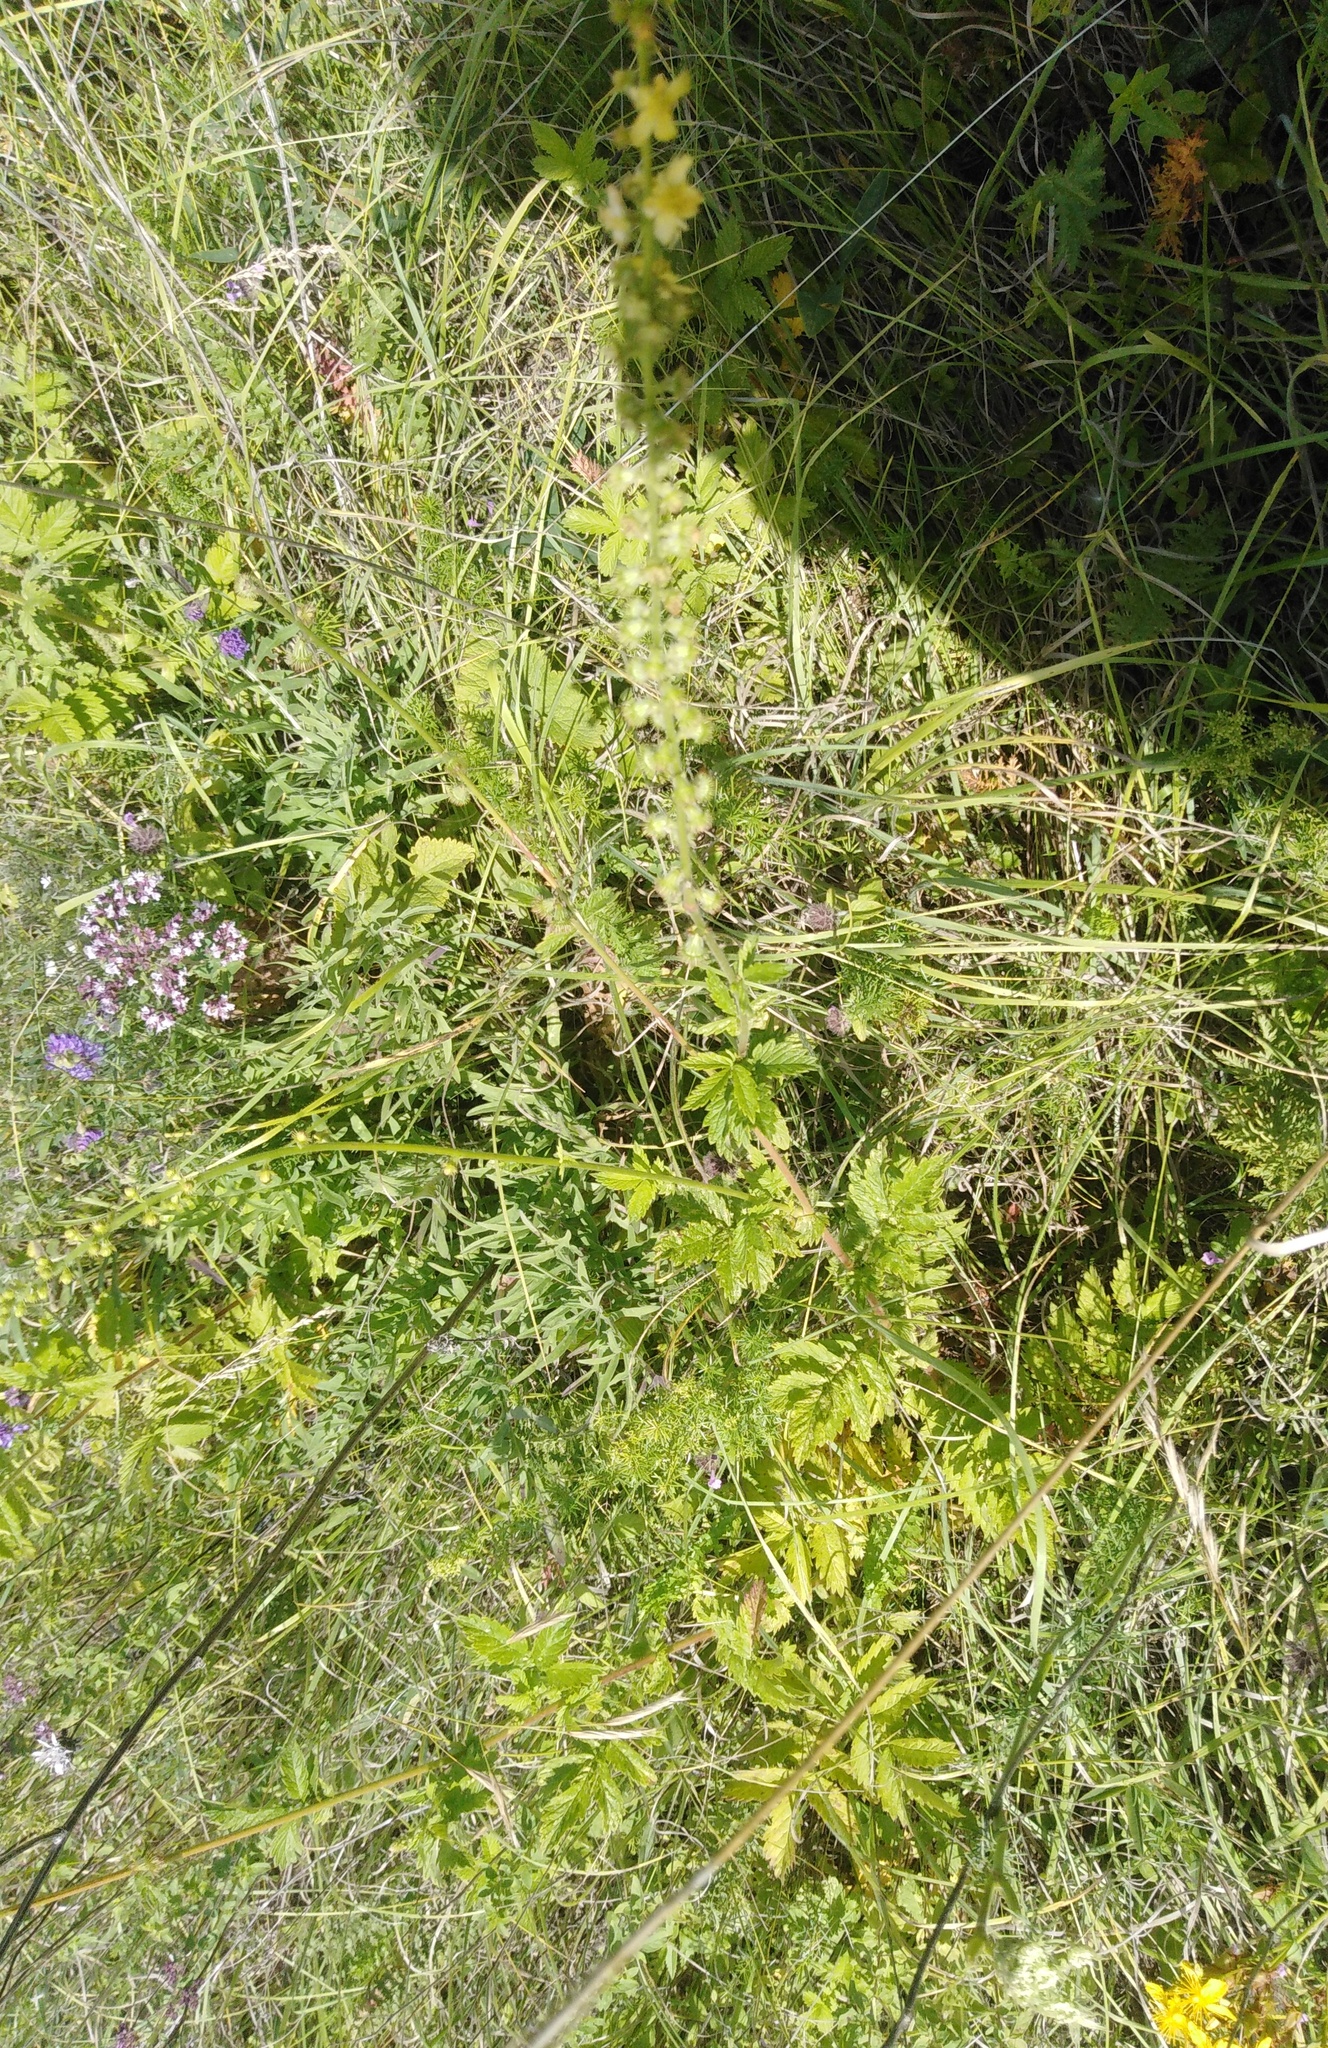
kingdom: Plantae
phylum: Tracheophyta
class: Magnoliopsida
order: Rosales
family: Rosaceae
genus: Agrimonia
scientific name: Agrimonia eupatoria
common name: Agrimony
